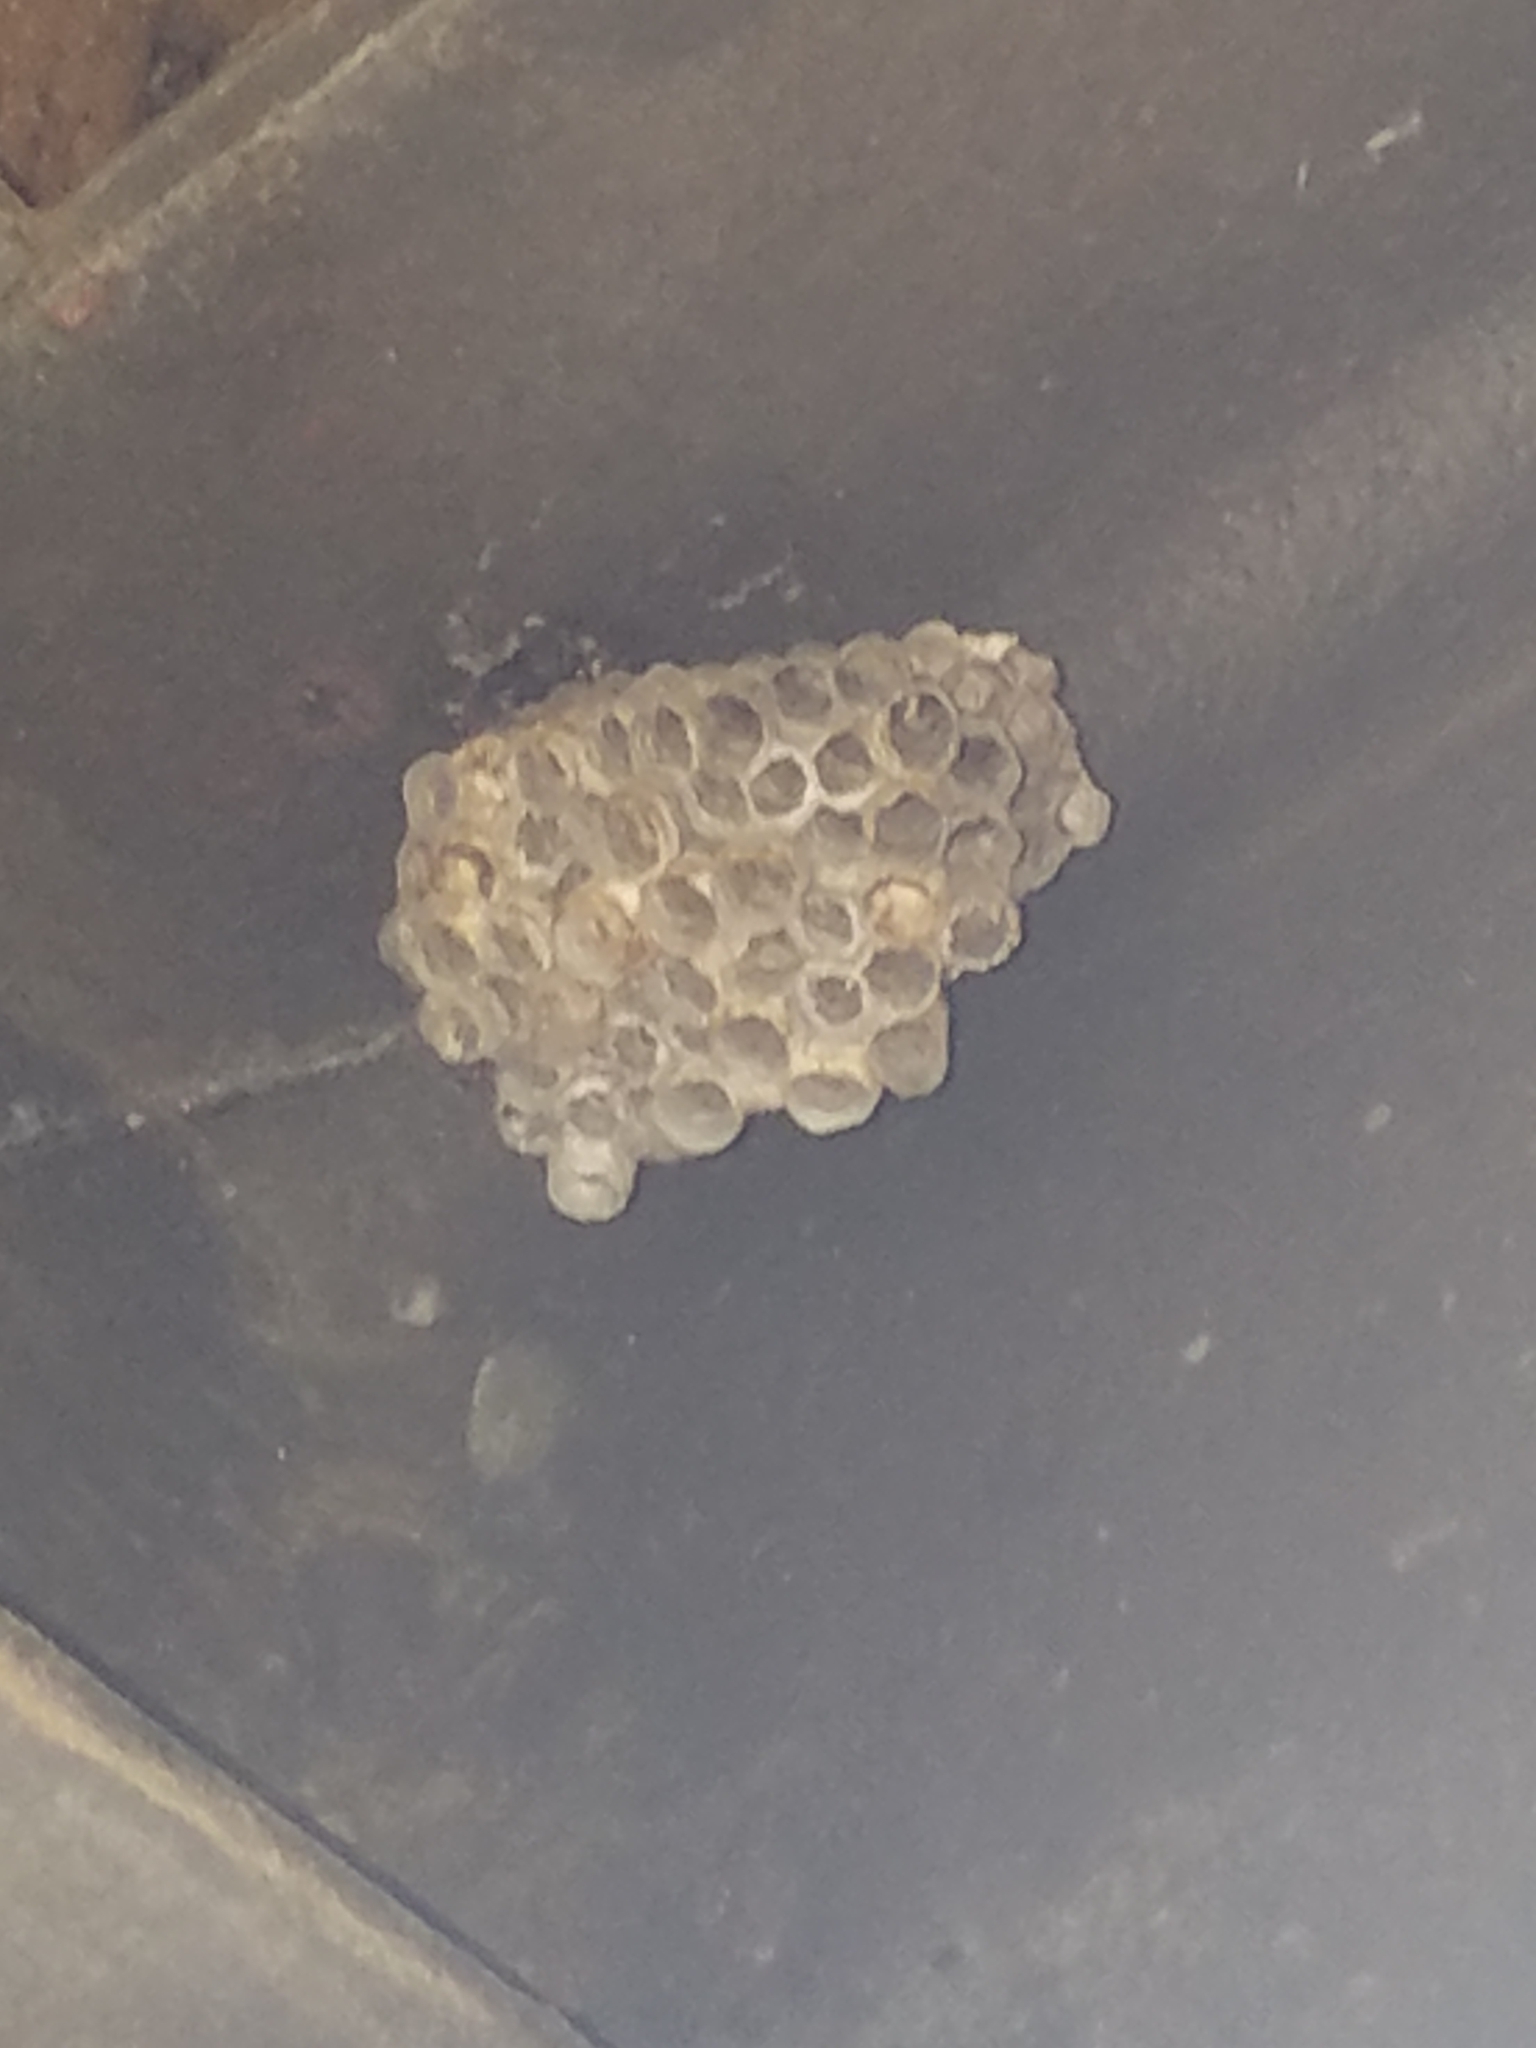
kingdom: Animalia
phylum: Arthropoda
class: Insecta
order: Hymenoptera
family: Eumenidae
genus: Polistes
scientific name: Polistes
